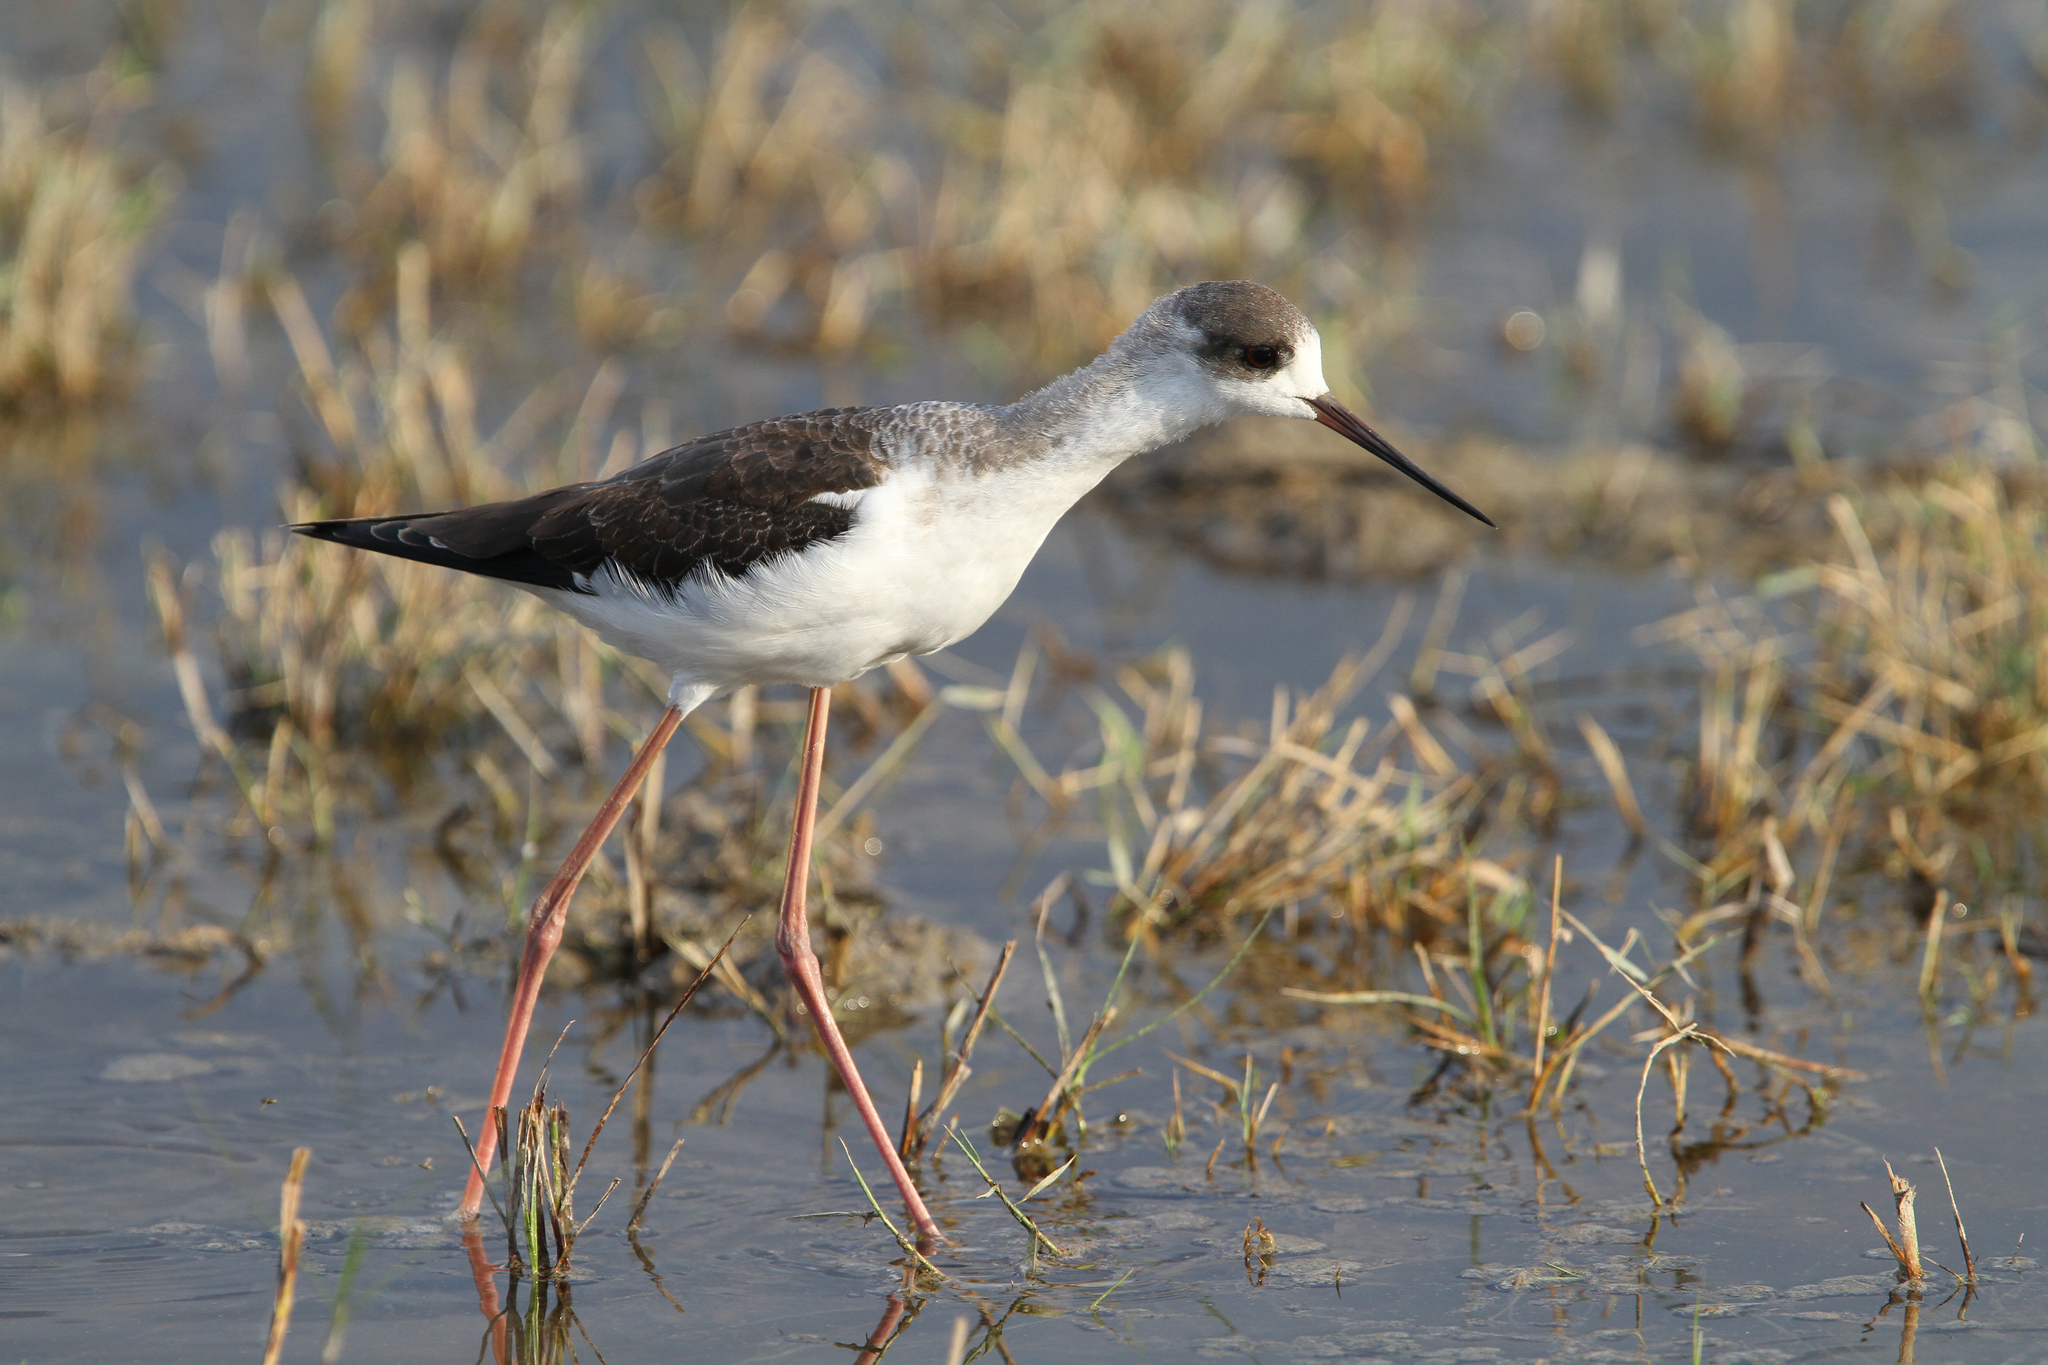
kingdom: Animalia
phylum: Chordata
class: Aves
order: Charadriiformes
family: Recurvirostridae
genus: Himantopus
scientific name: Himantopus himantopus
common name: Black-winged stilt
